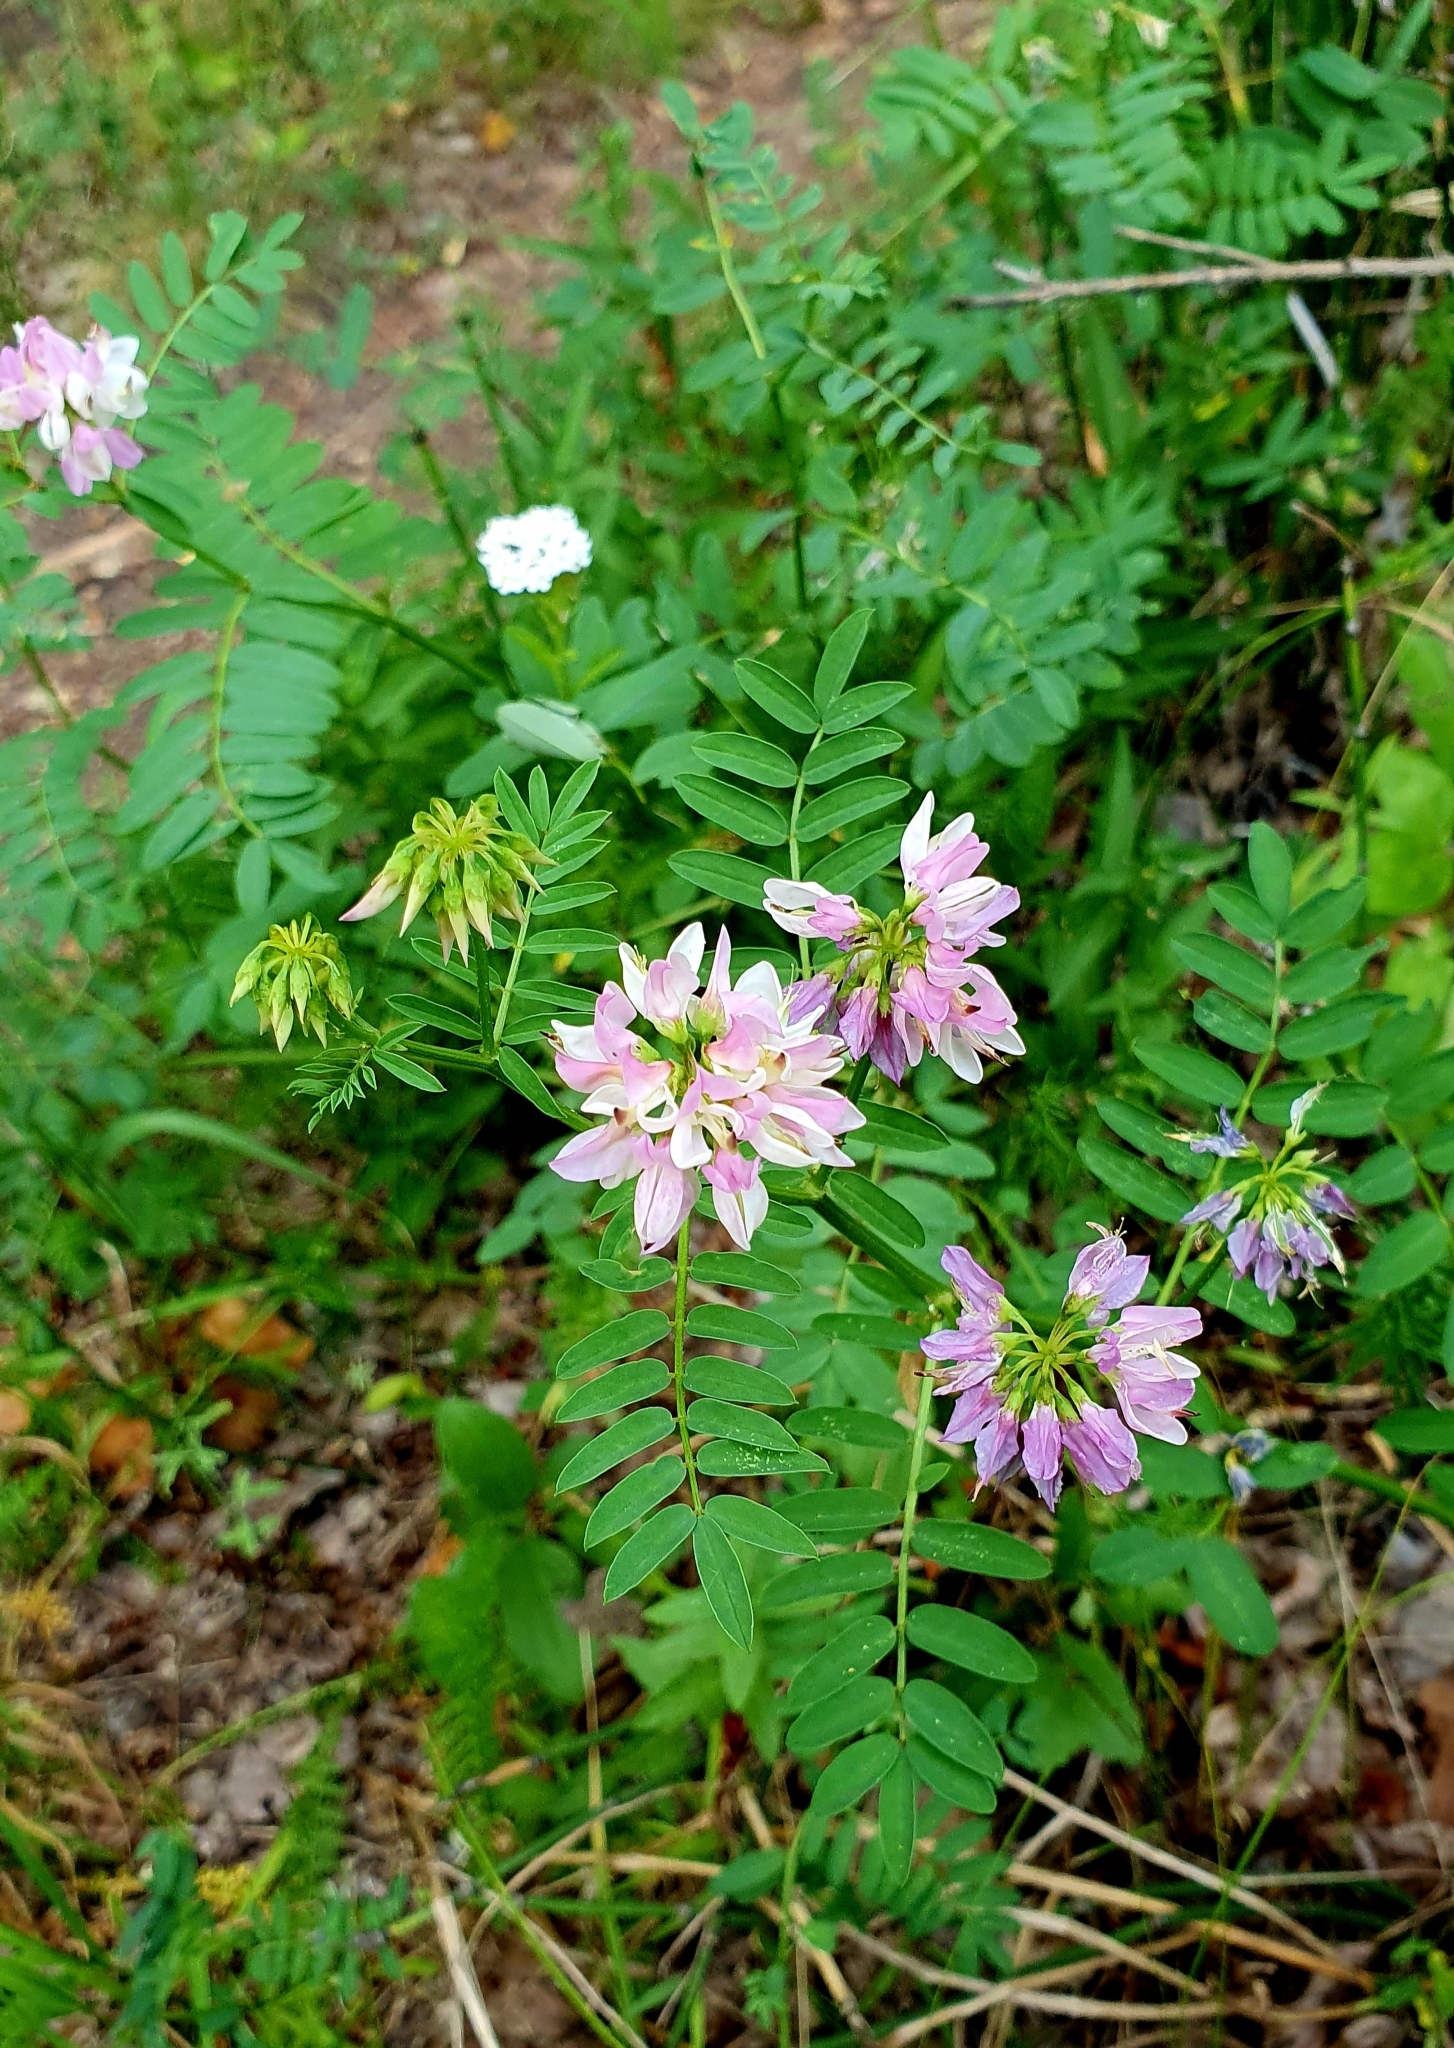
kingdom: Plantae
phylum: Tracheophyta
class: Magnoliopsida
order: Fabales
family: Fabaceae
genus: Coronilla
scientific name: Coronilla varia
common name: Crownvetch
